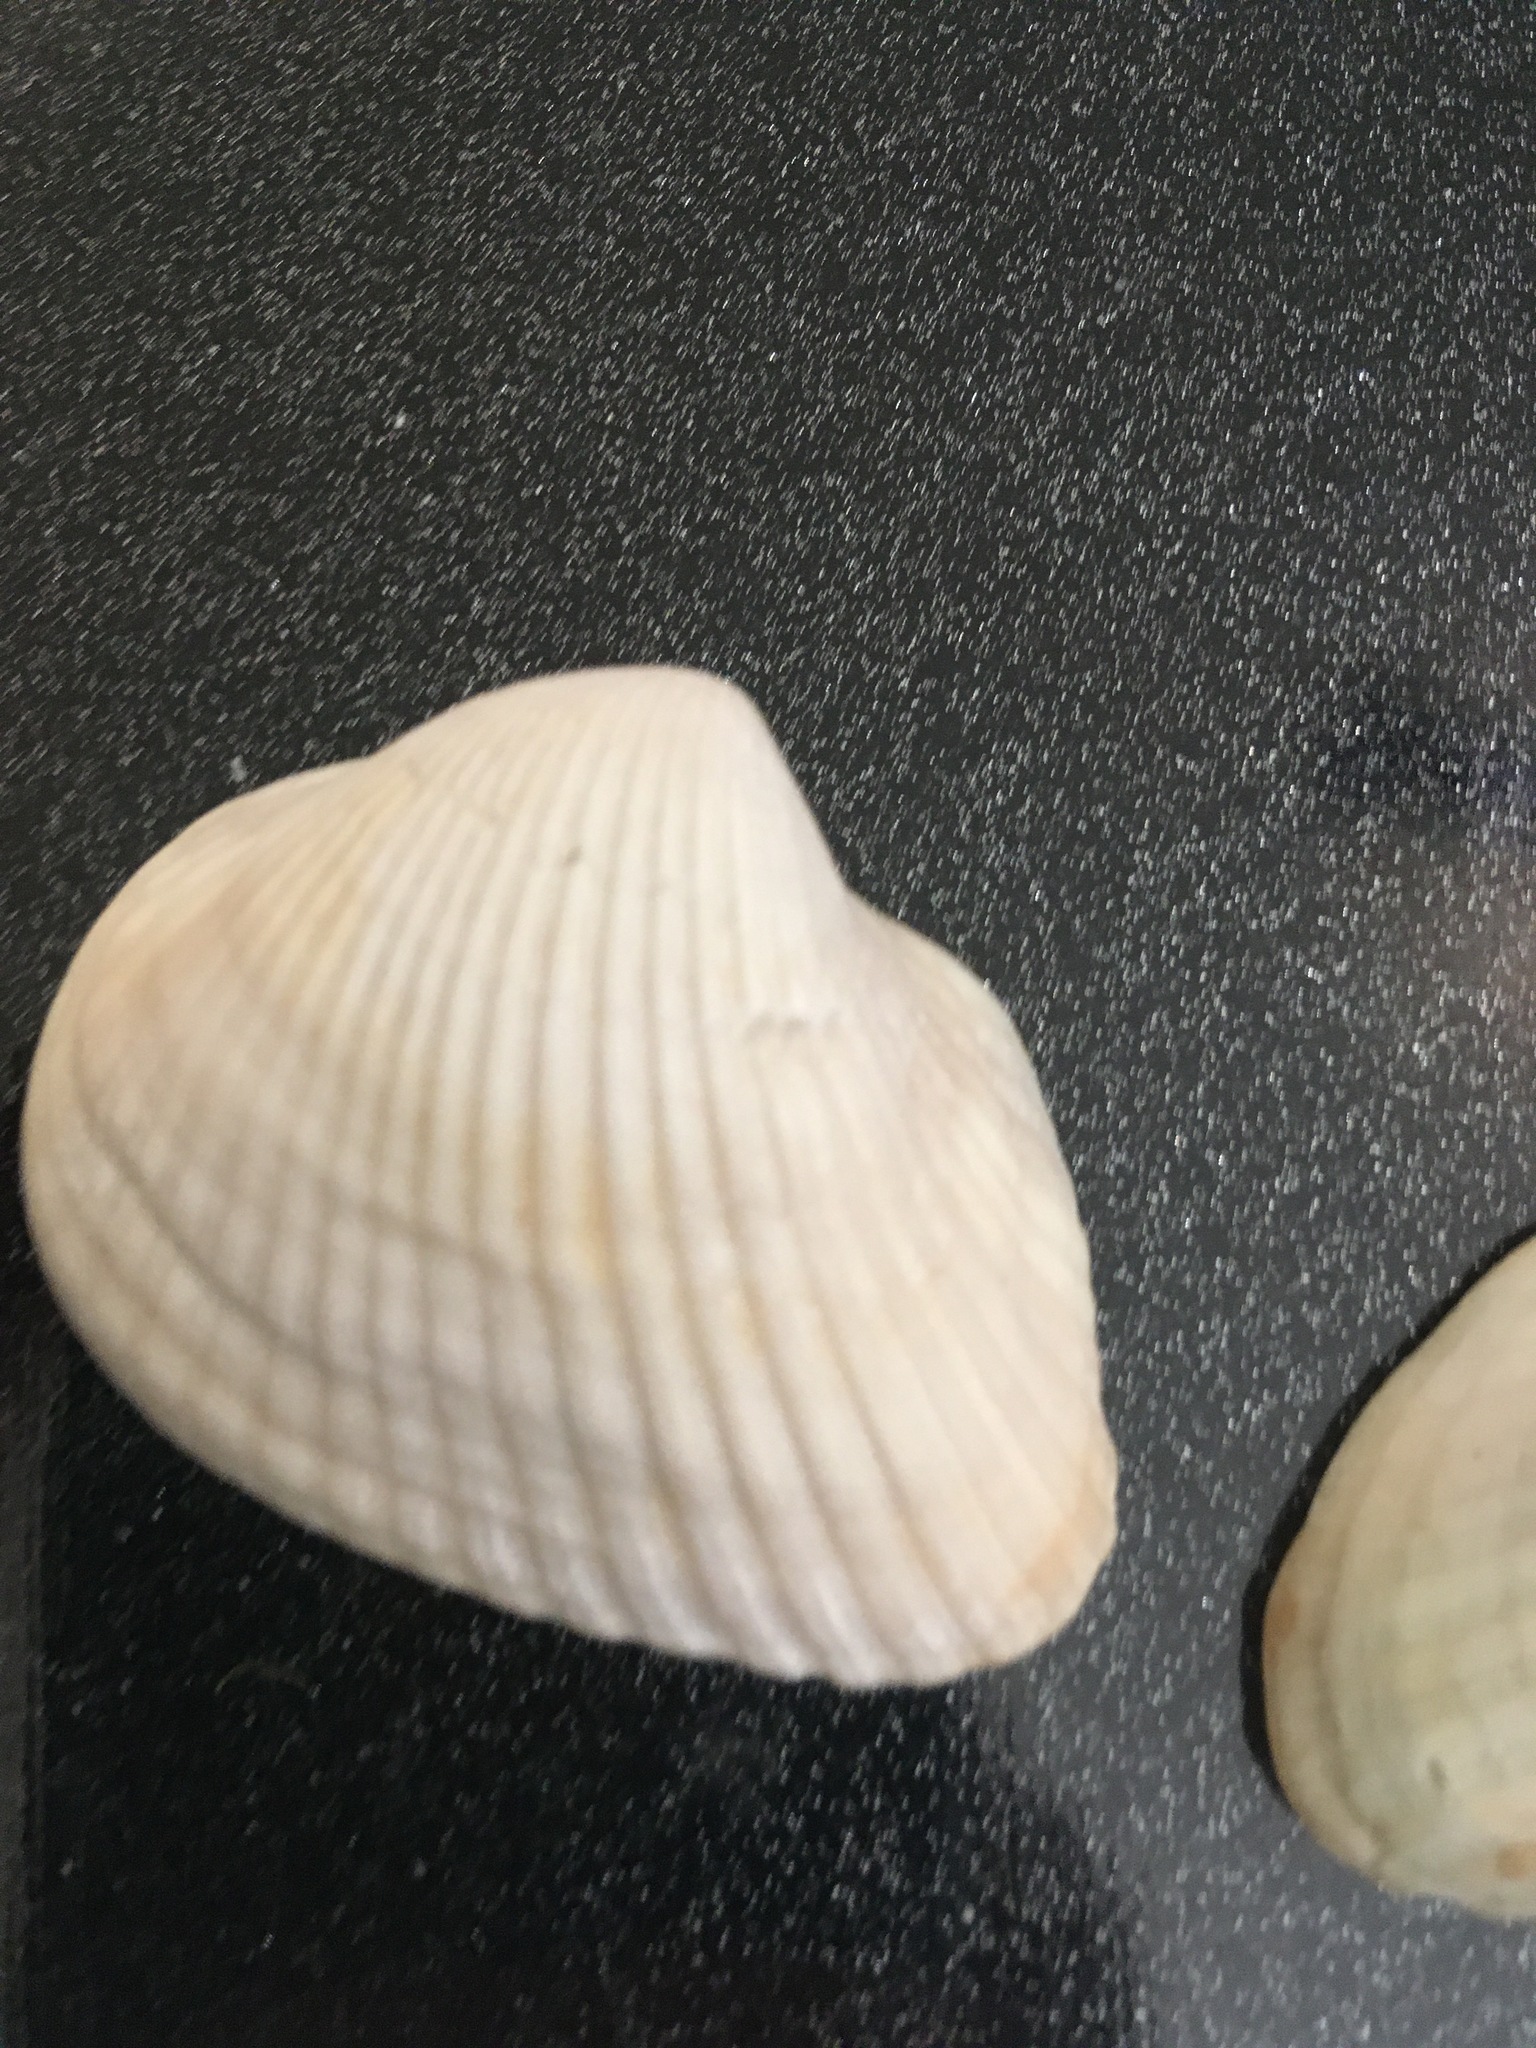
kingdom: Animalia
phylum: Mollusca
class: Bivalvia
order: Arcida
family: Noetiidae
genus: Noetia
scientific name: Noetia ponderosa
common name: Ponderous ark
